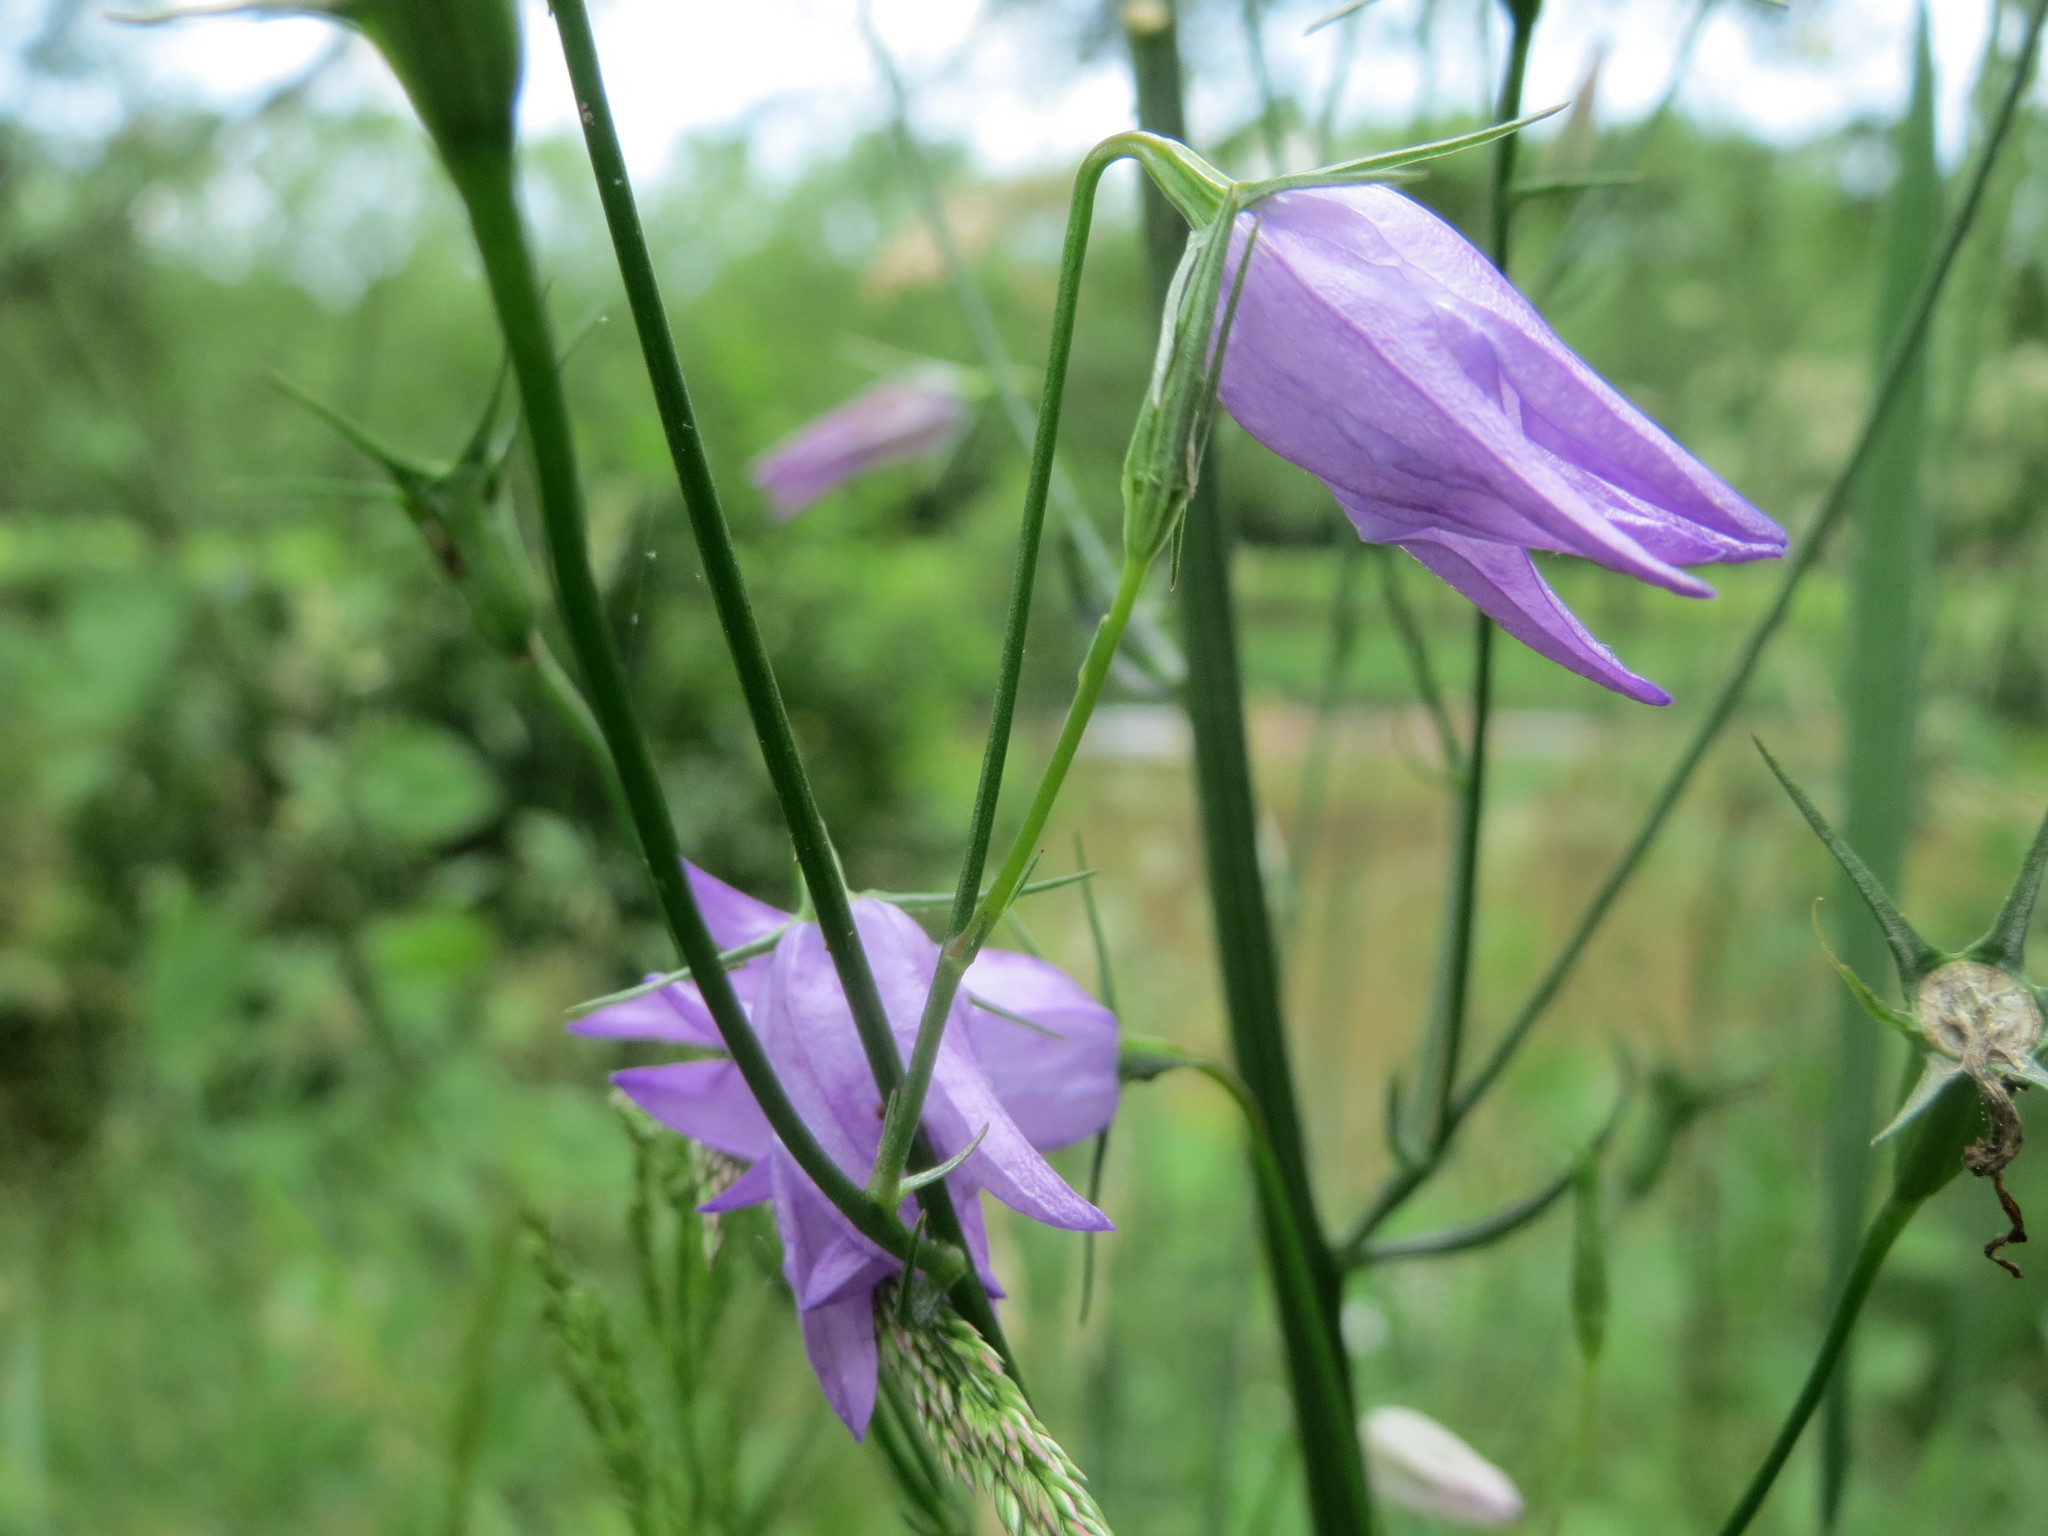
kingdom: Plantae
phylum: Tracheophyta
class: Magnoliopsida
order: Asterales
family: Campanulaceae
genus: Campanula
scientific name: Campanula rapunculus
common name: Rampion bellflower
